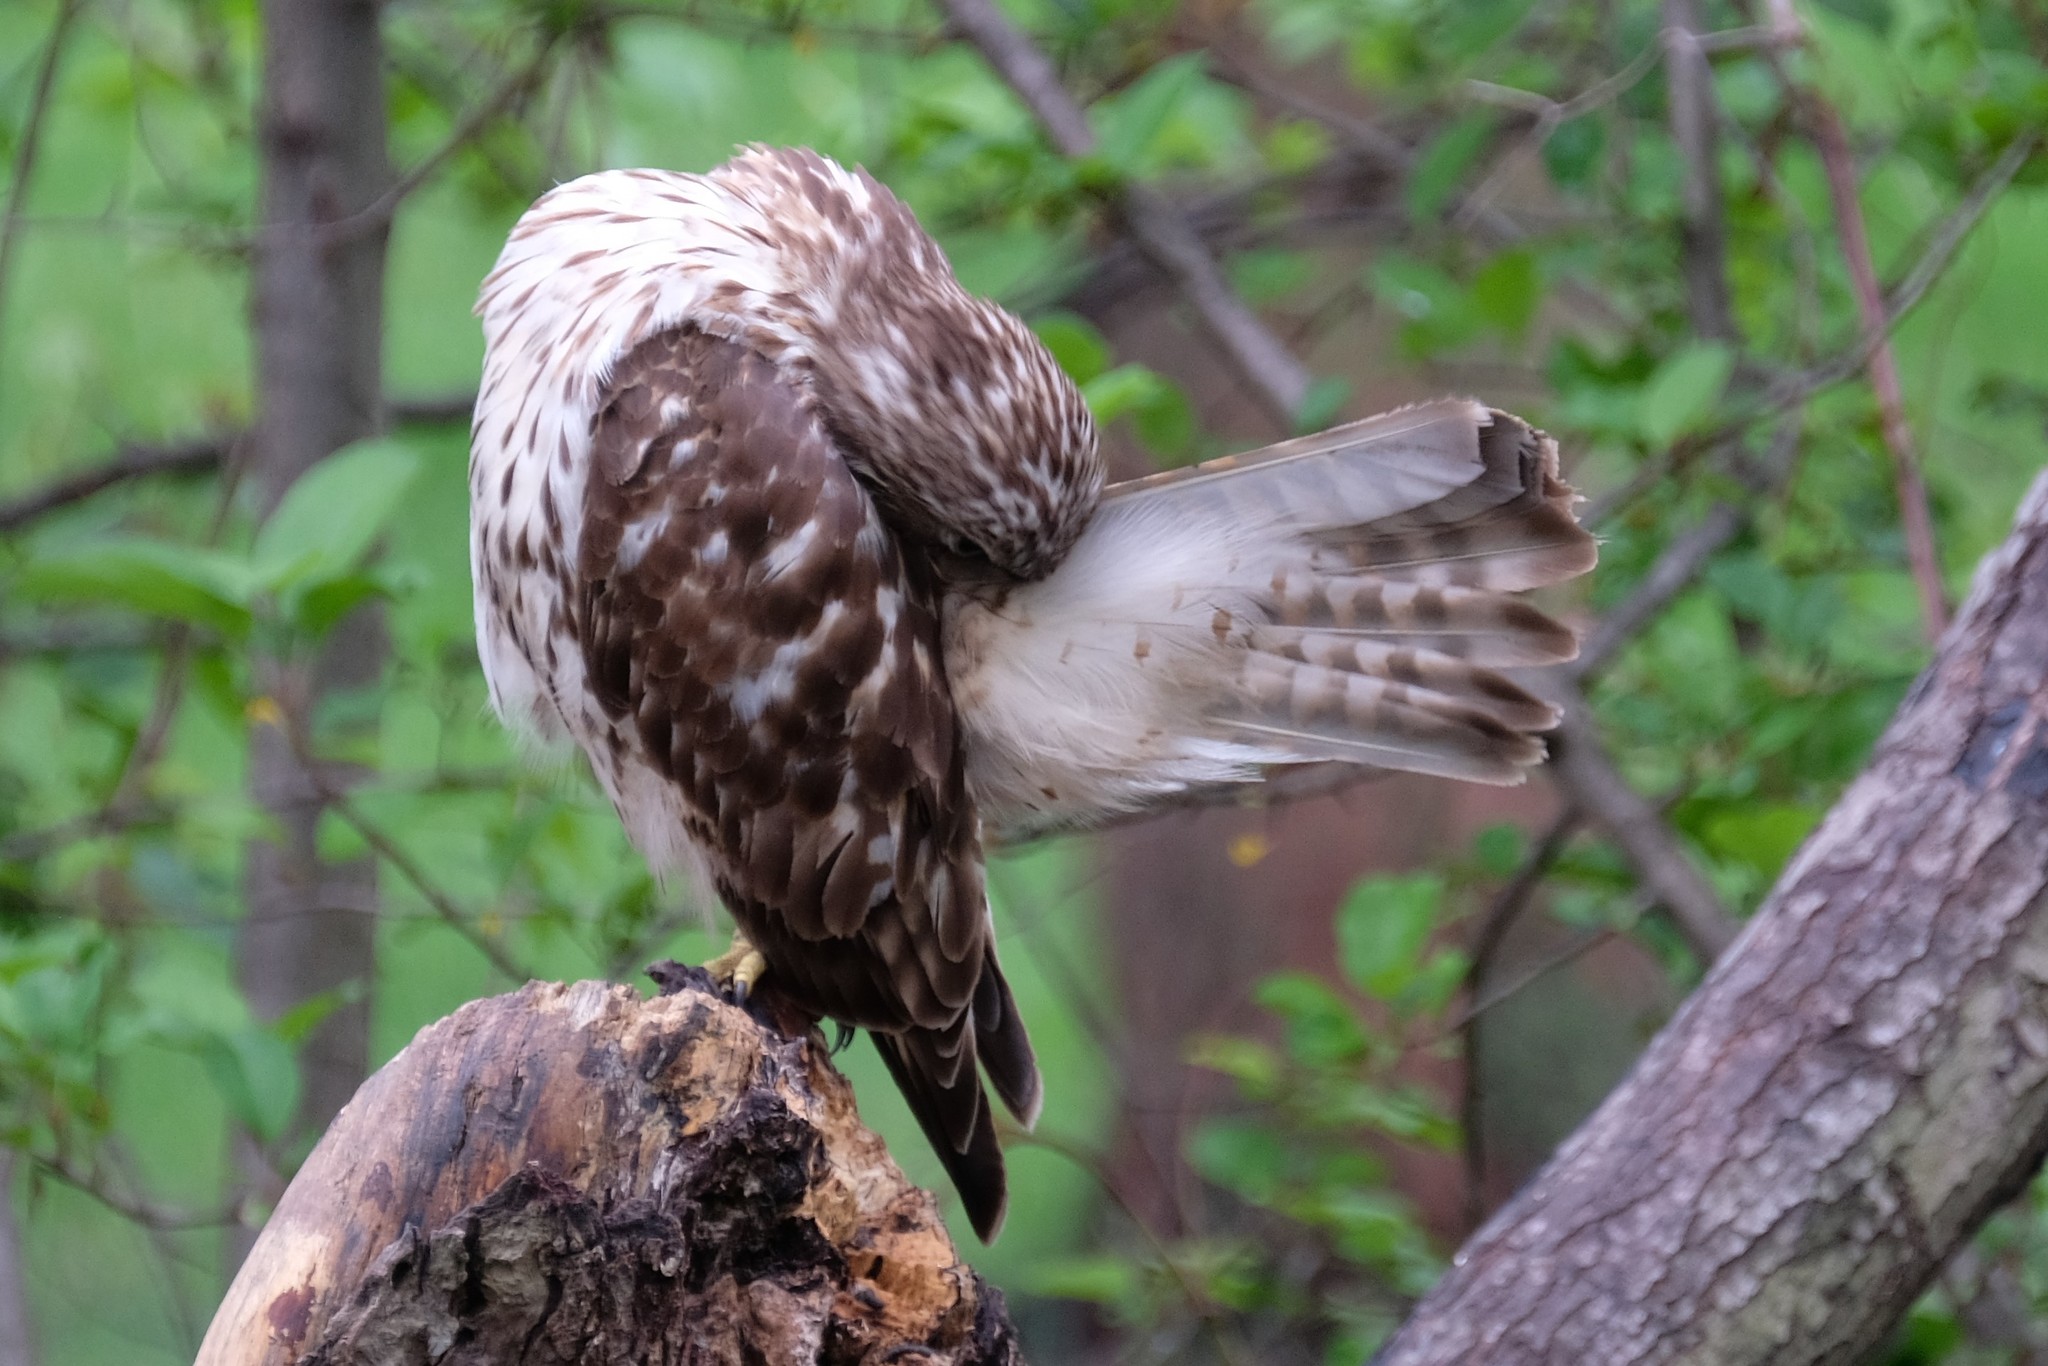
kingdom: Animalia
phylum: Chordata
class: Aves
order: Accipitriformes
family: Accipitridae
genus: Buteo
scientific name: Buteo lineatus
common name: Red-shouldered hawk
